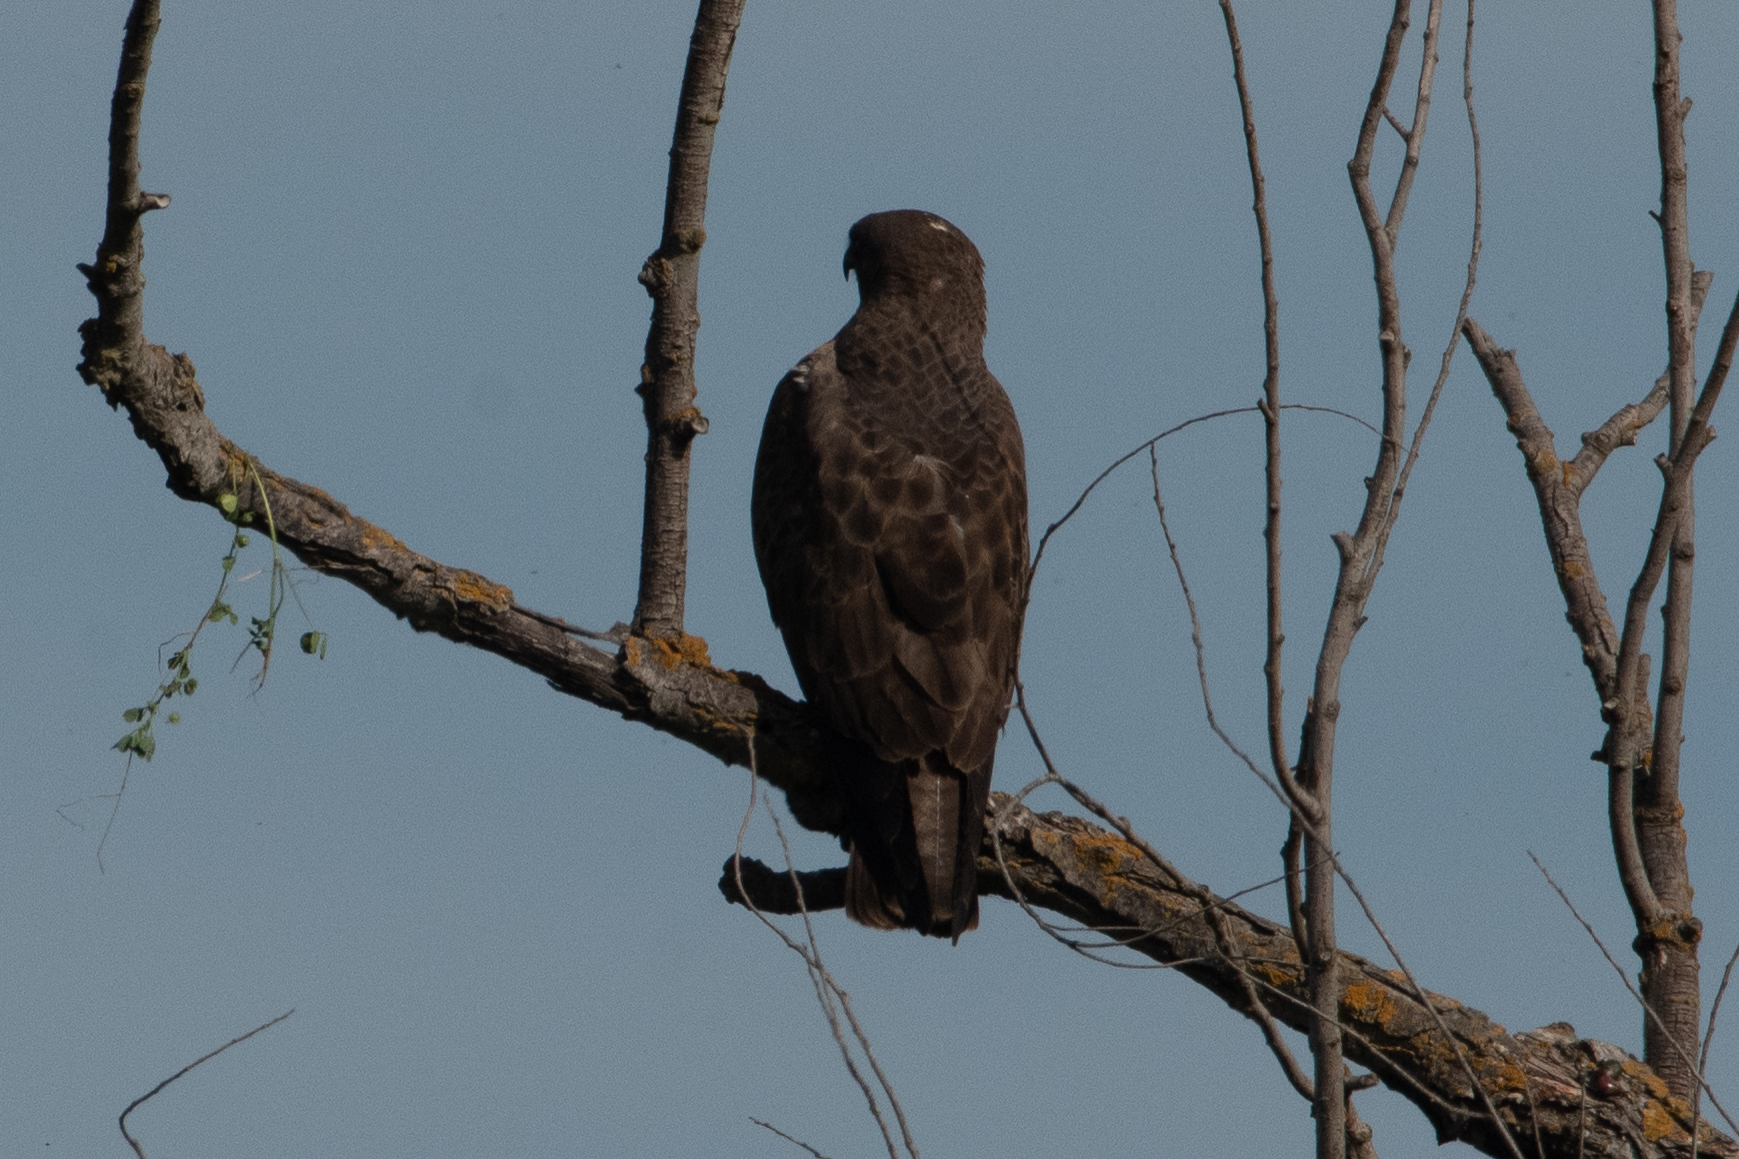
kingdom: Animalia
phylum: Chordata
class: Aves
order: Accipitriformes
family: Accipitridae
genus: Buteo
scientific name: Buteo swainsoni
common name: Swainson's hawk
